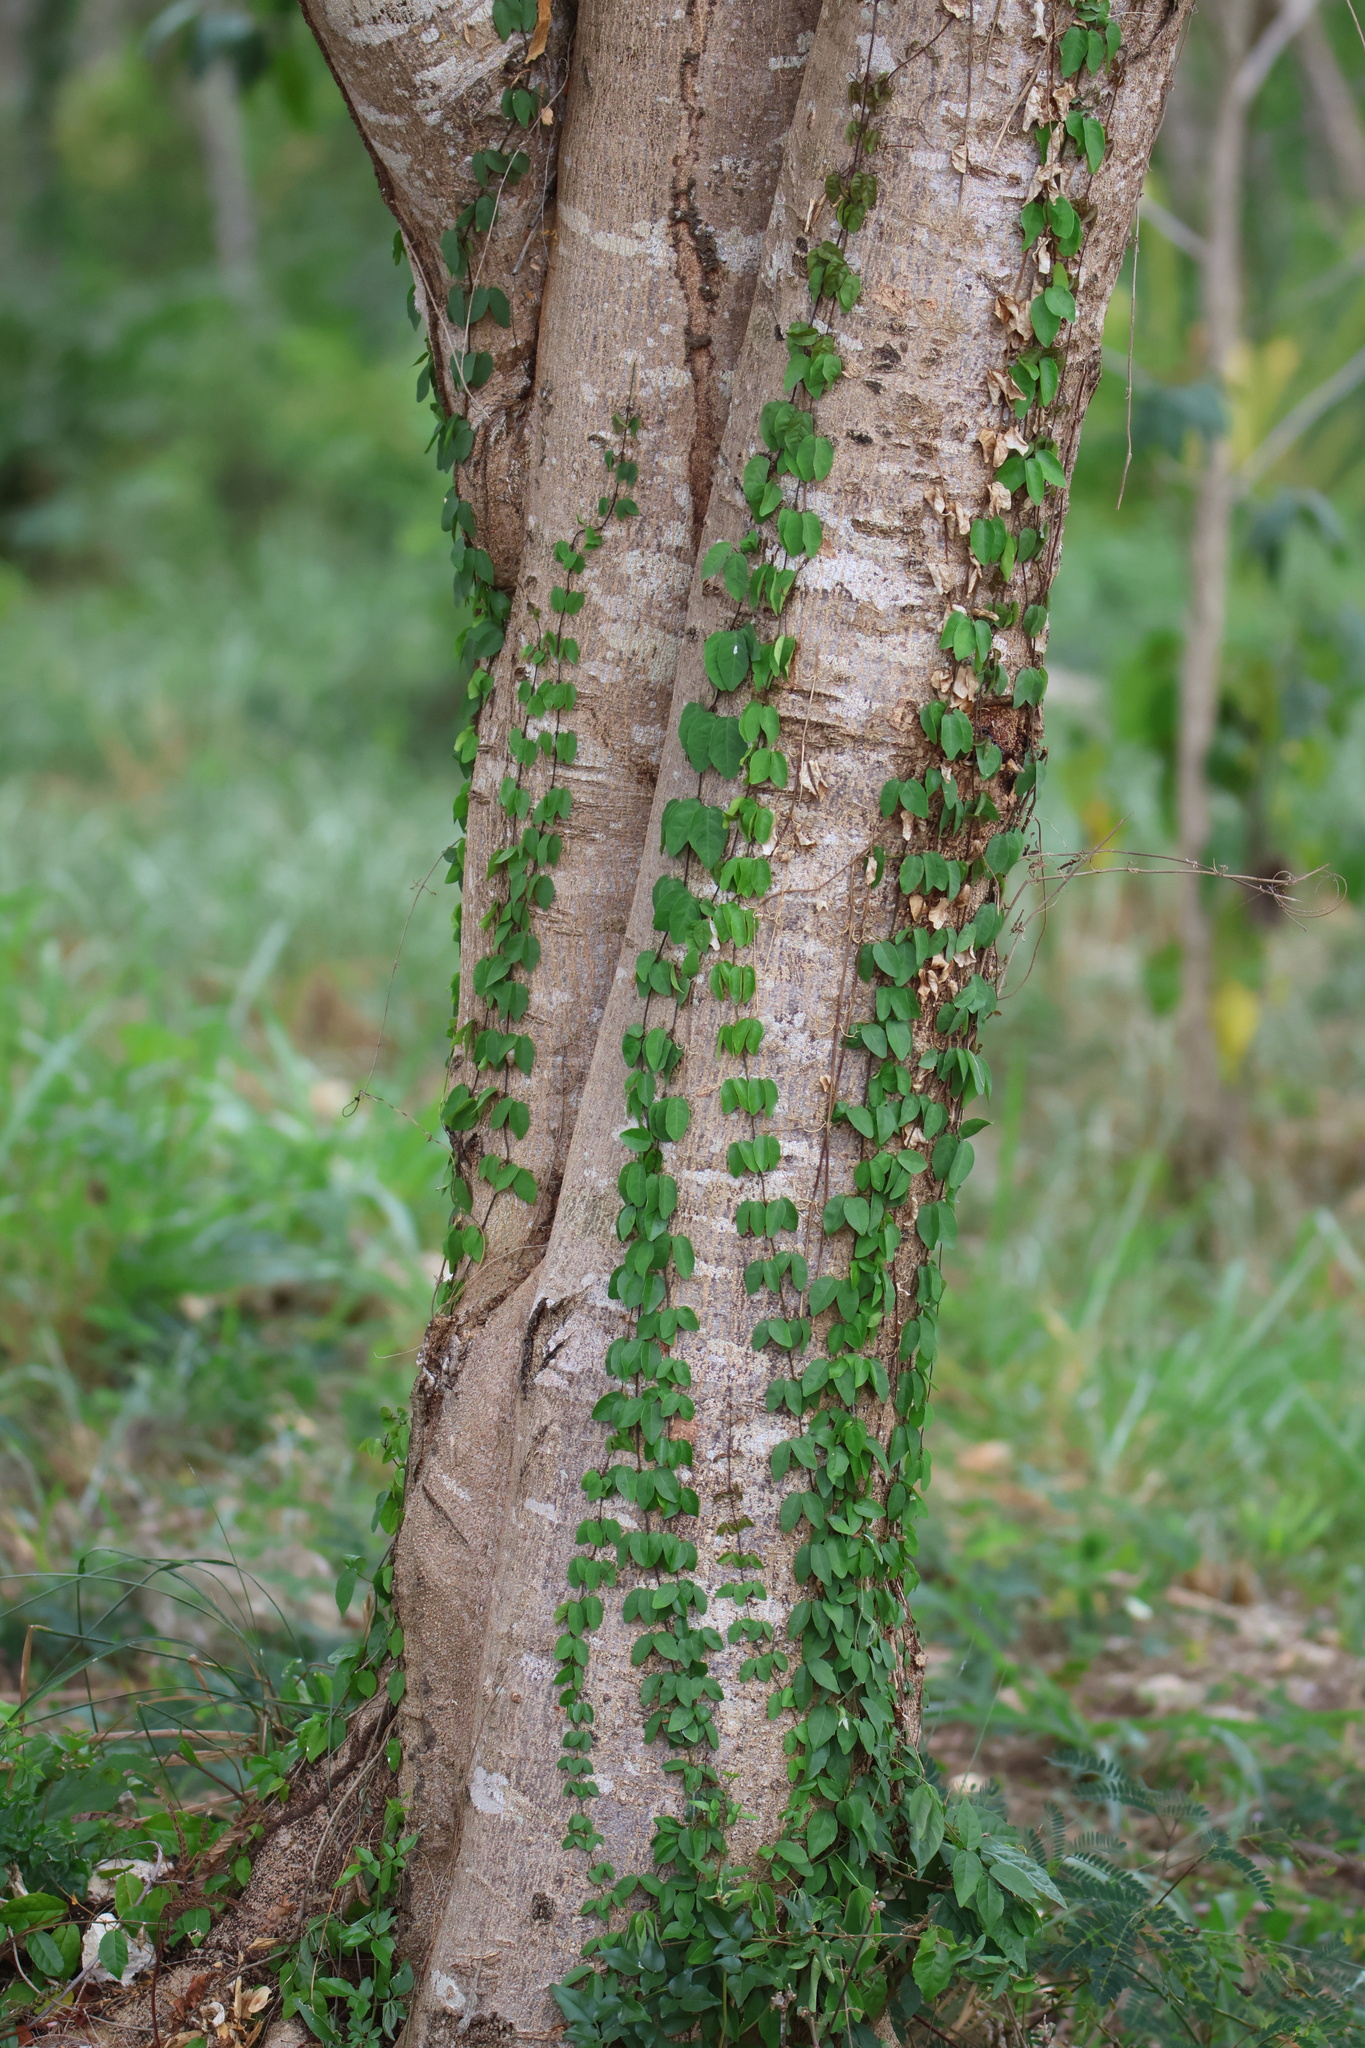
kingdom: Plantae
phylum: Tracheophyta
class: Magnoliopsida
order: Lamiales
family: Bignoniaceae
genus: Dolichandra
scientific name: Dolichandra unguis-cati
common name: Catclaw vine
